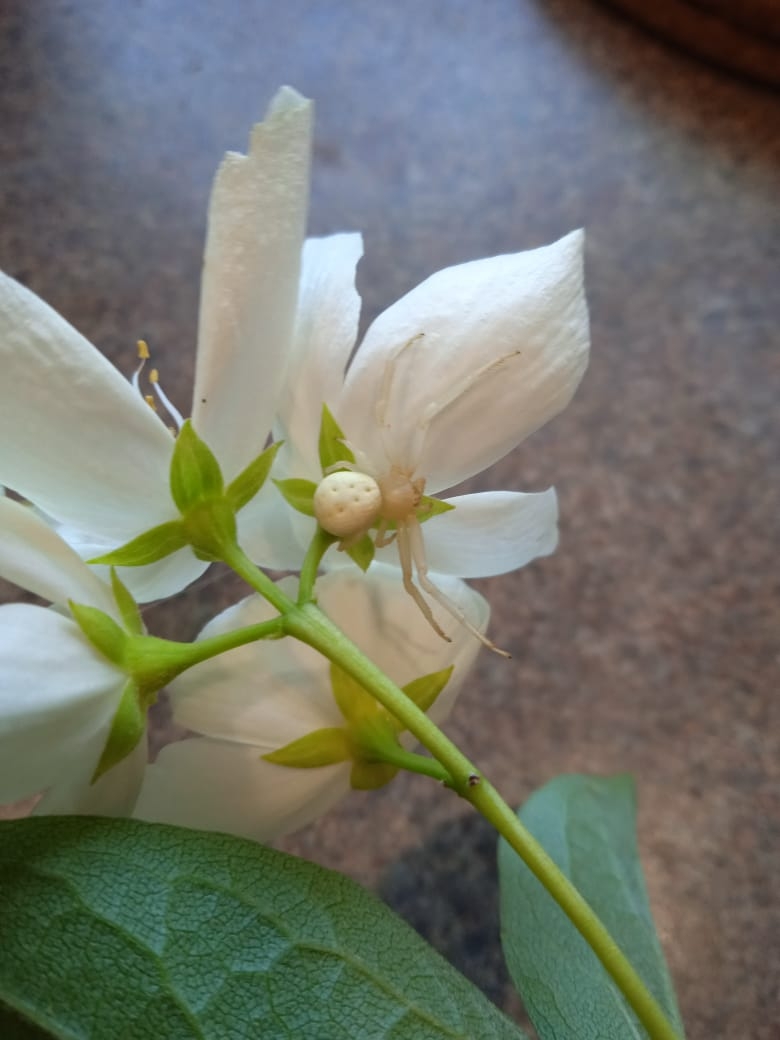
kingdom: Animalia
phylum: Arthropoda
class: Arachnida
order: Araneae
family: Thomisidae
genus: Misumena
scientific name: Misumena vatia
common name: Goldenrod crab spider
